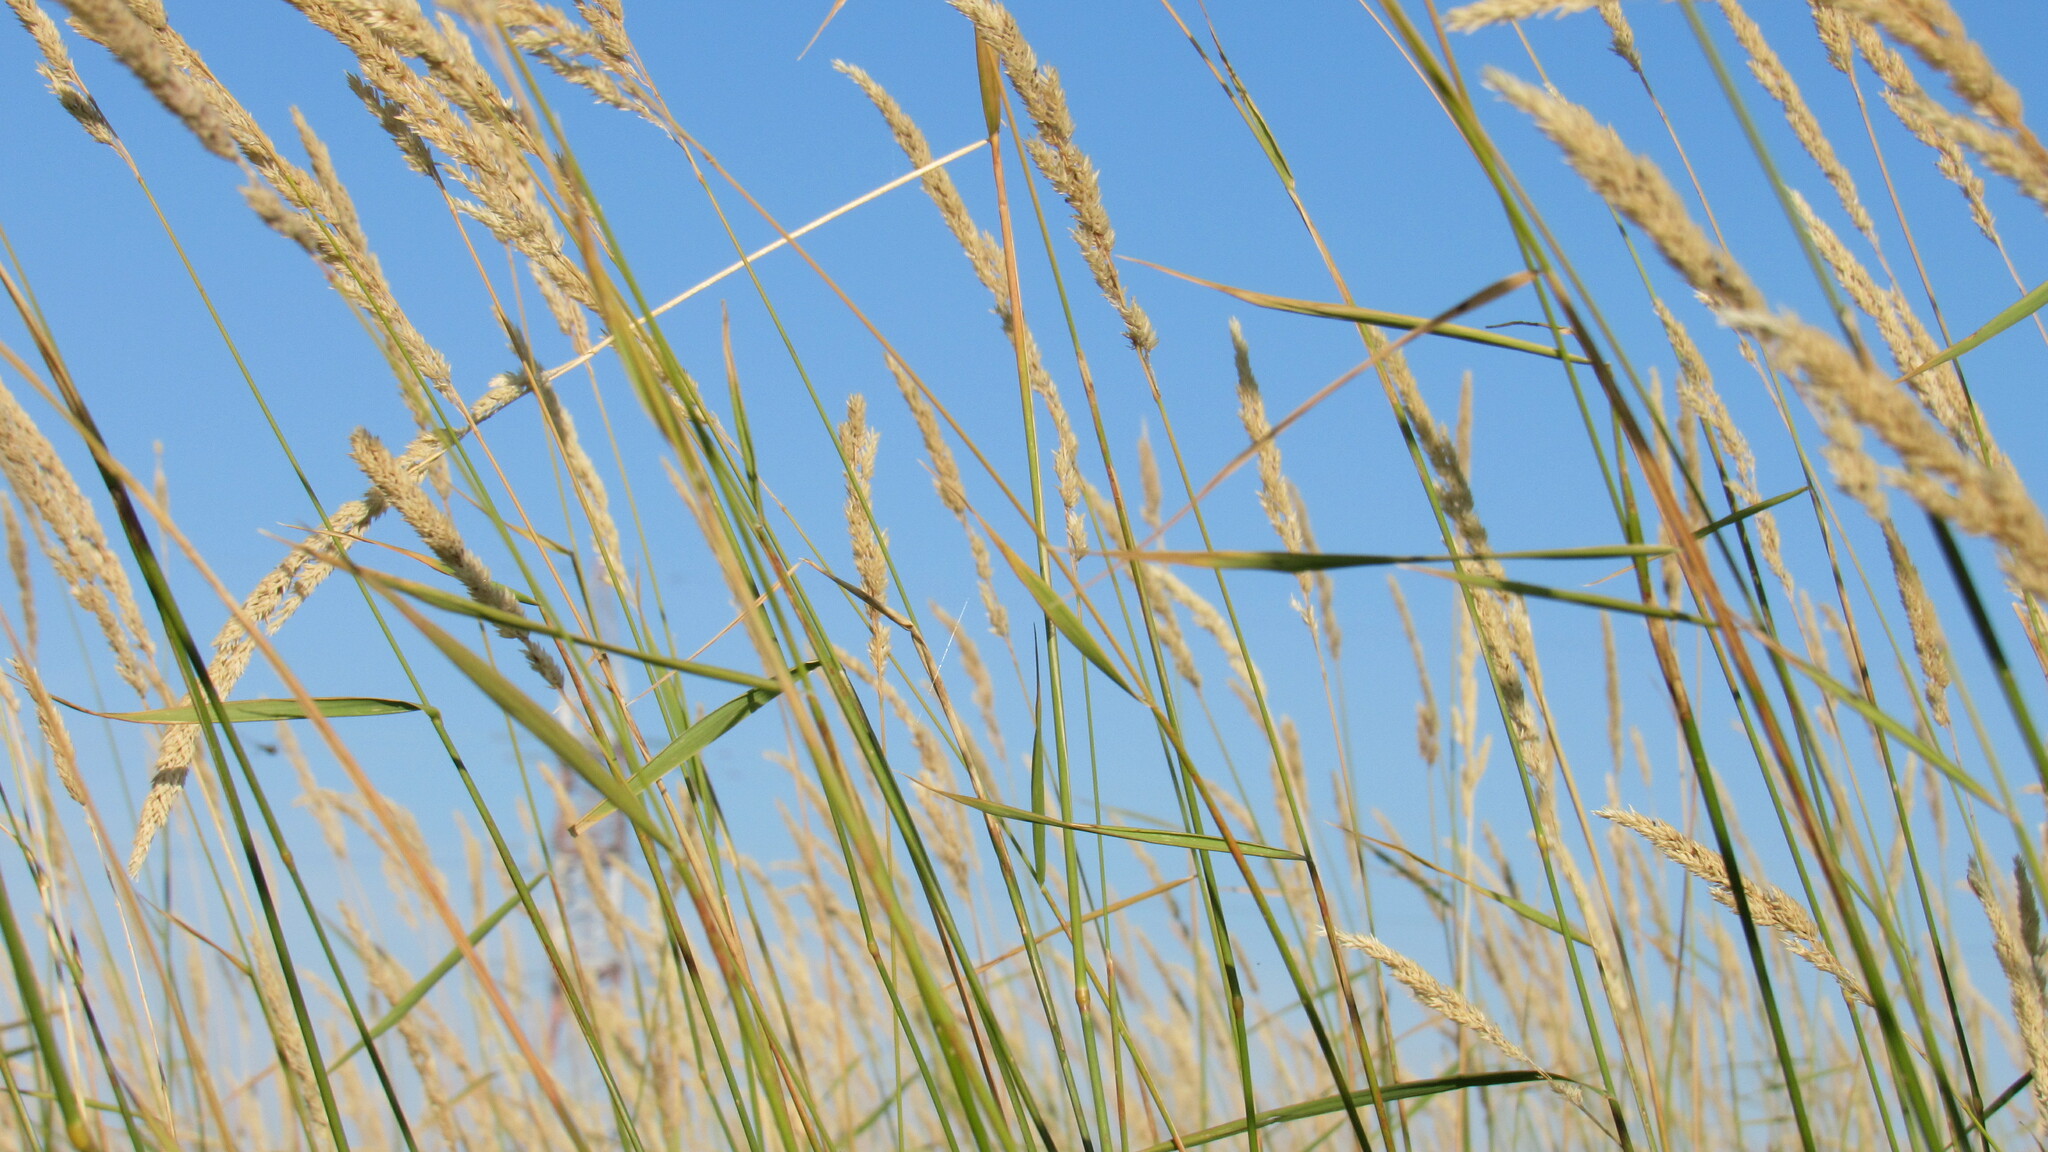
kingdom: Plantae
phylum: Tracheophyta
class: Liliopsida
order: Poales
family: Poaceae
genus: Phalaris
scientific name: Phalaris arundinacea
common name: Reed canary-grass
